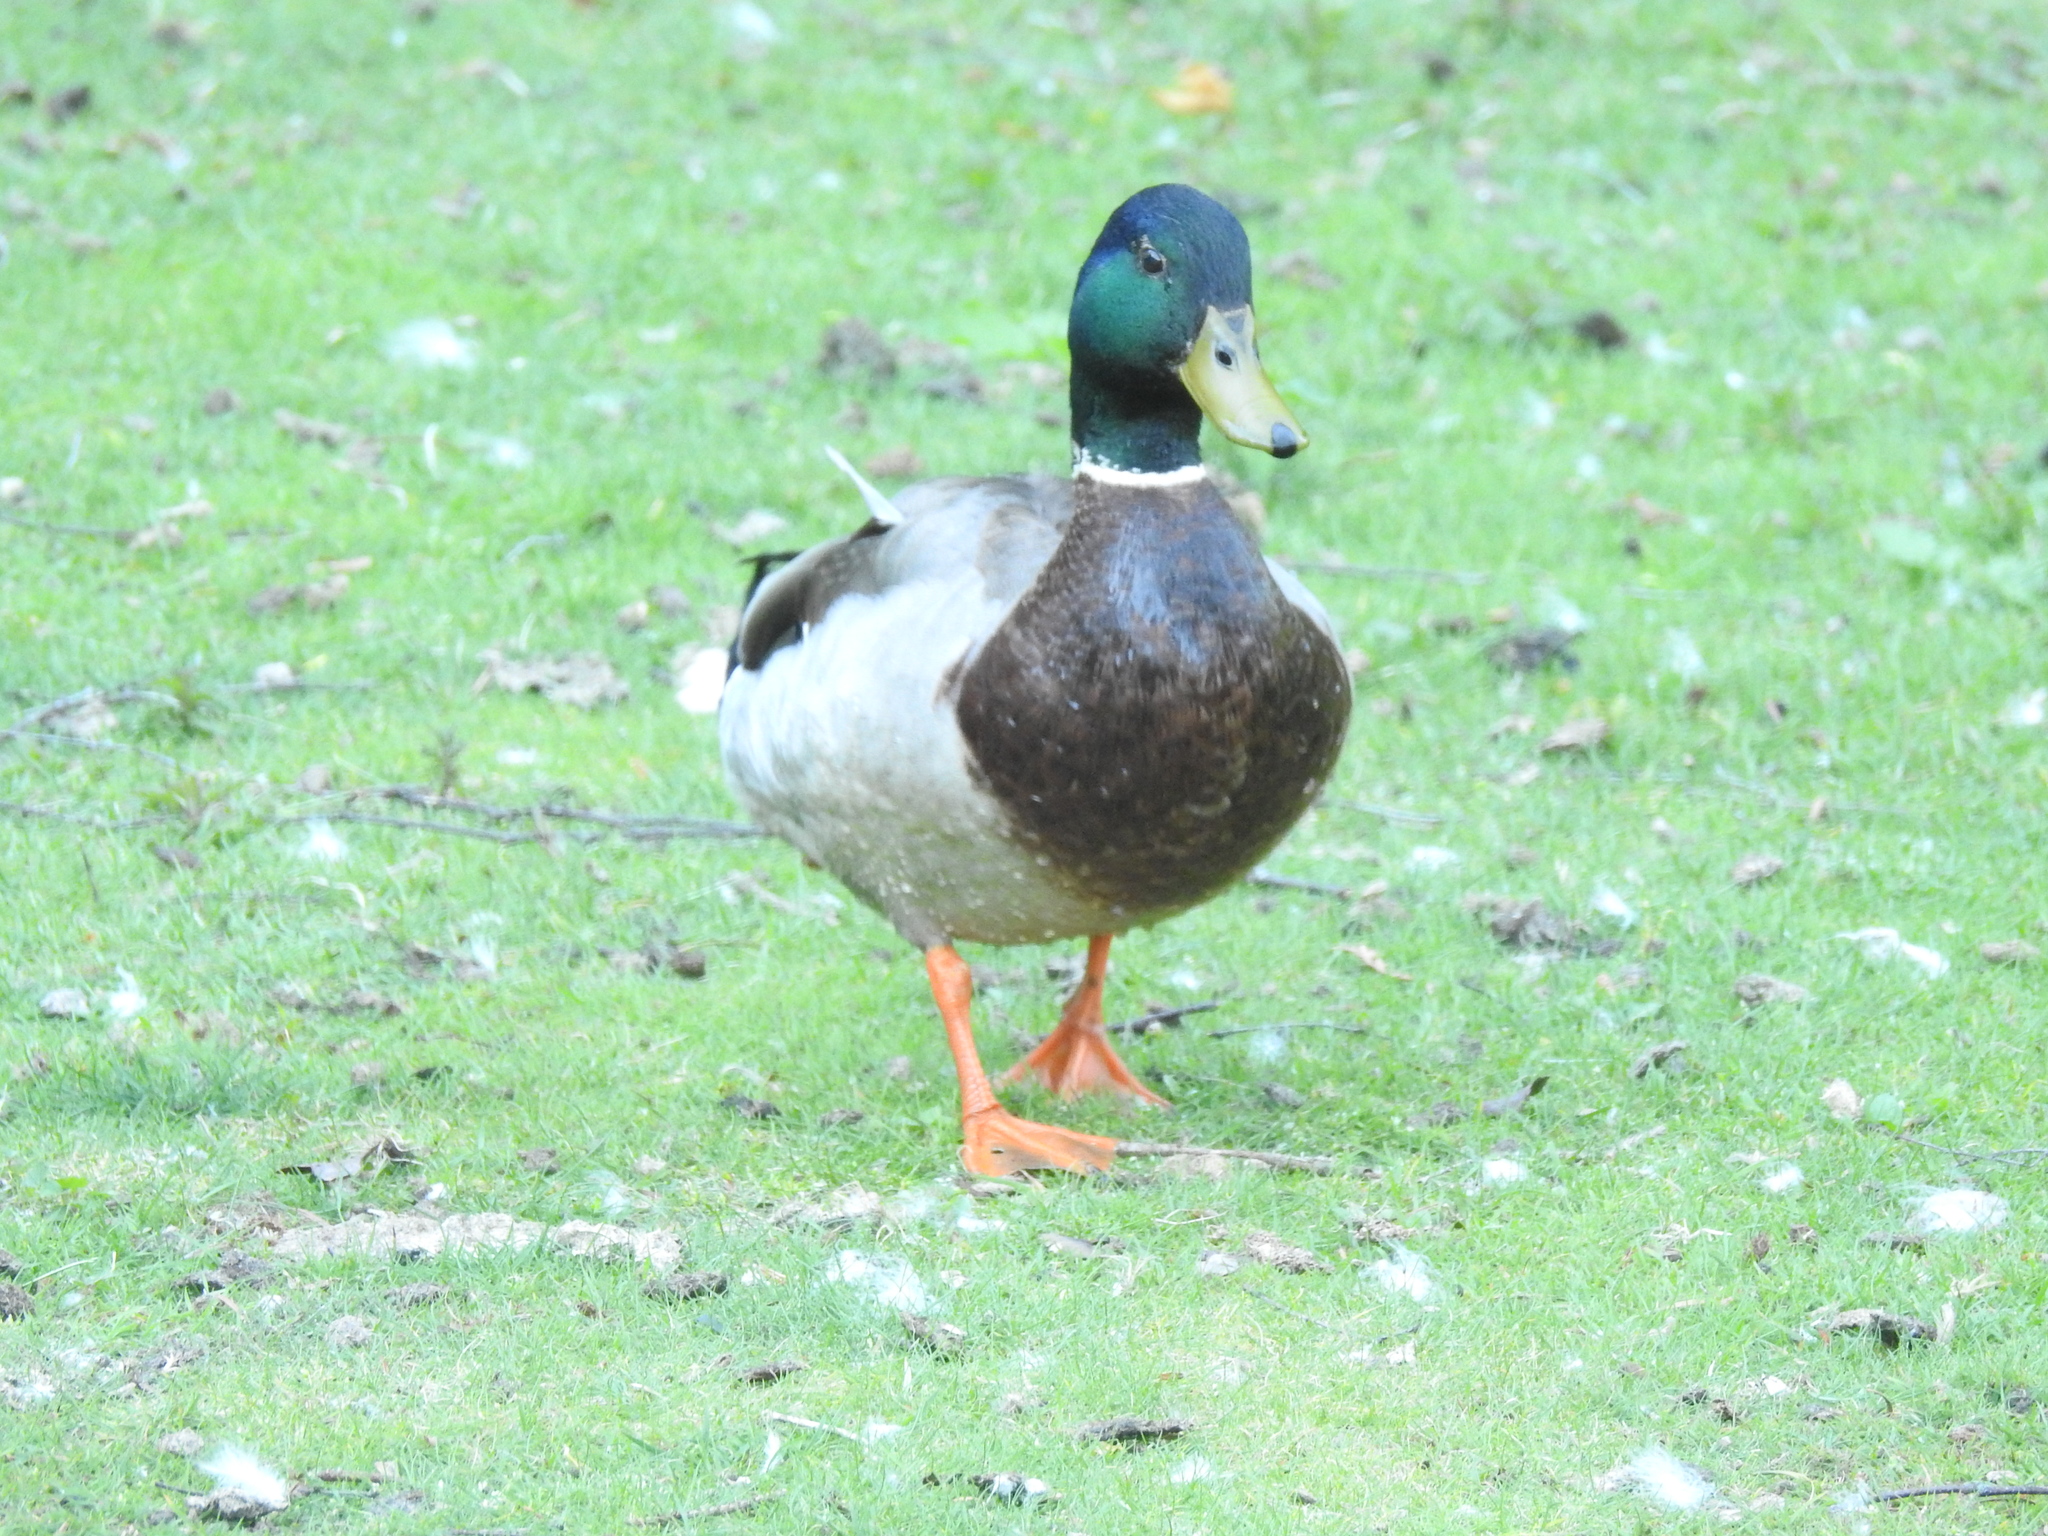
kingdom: Animalia
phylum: Chordata
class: Aves
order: Anseriformes
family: Anatidae
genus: Anas
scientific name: Anas platyrhynchos
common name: Mallard
